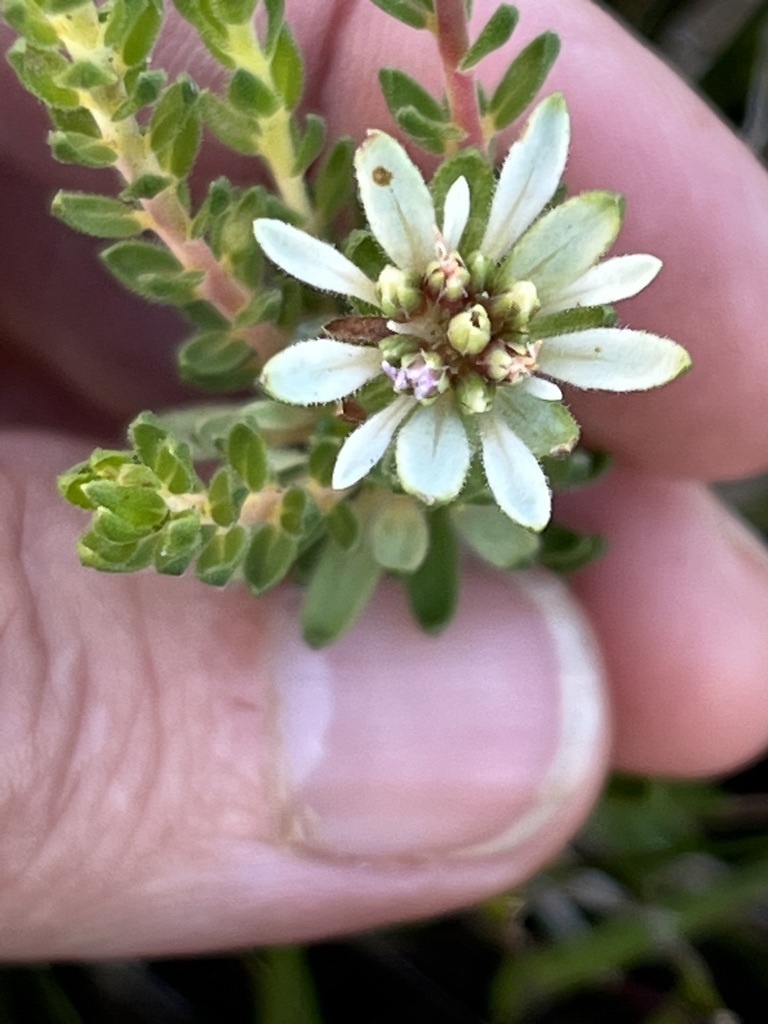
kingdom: Plantae
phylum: Tracheophyta
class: Magnoliopsida
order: Sapindales
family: Rutaceae
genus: Euchaetis
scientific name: Euchaetis longibracteata
